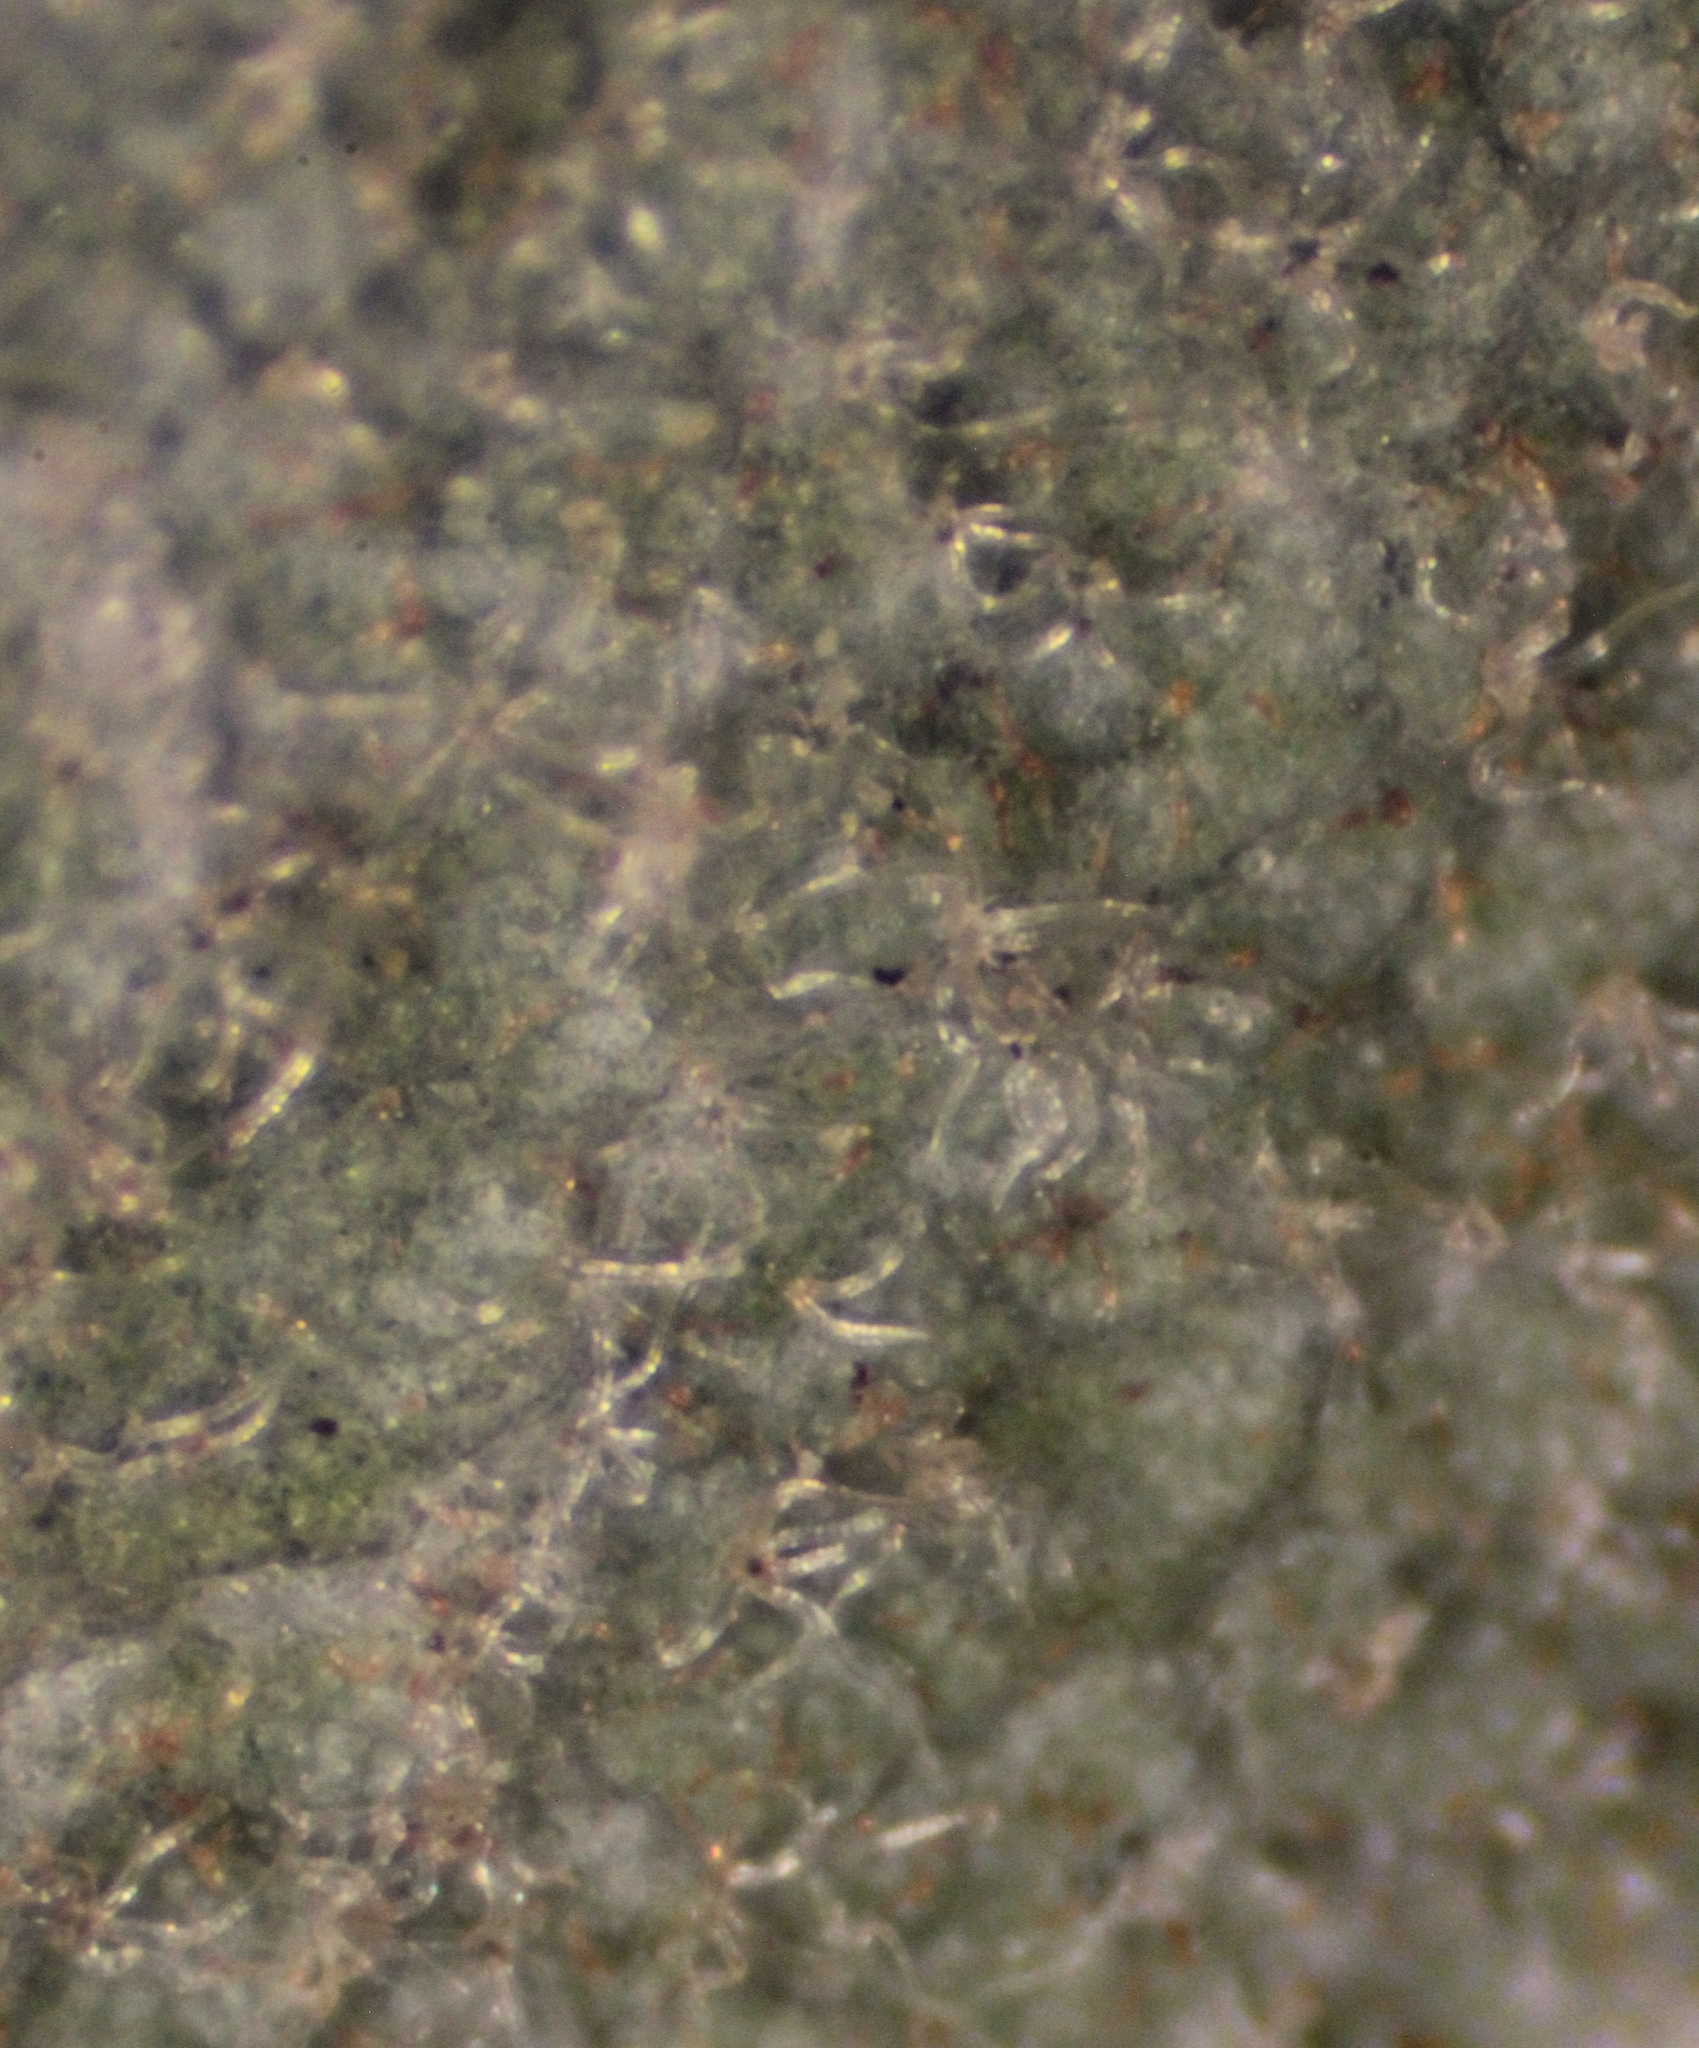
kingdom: Plantae
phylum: Tracheophyta
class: Magnoliopsida
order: Fagales
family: Fagaceae
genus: Quercus
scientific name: Quercus dumosa
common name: Coastal sage scrub oak
